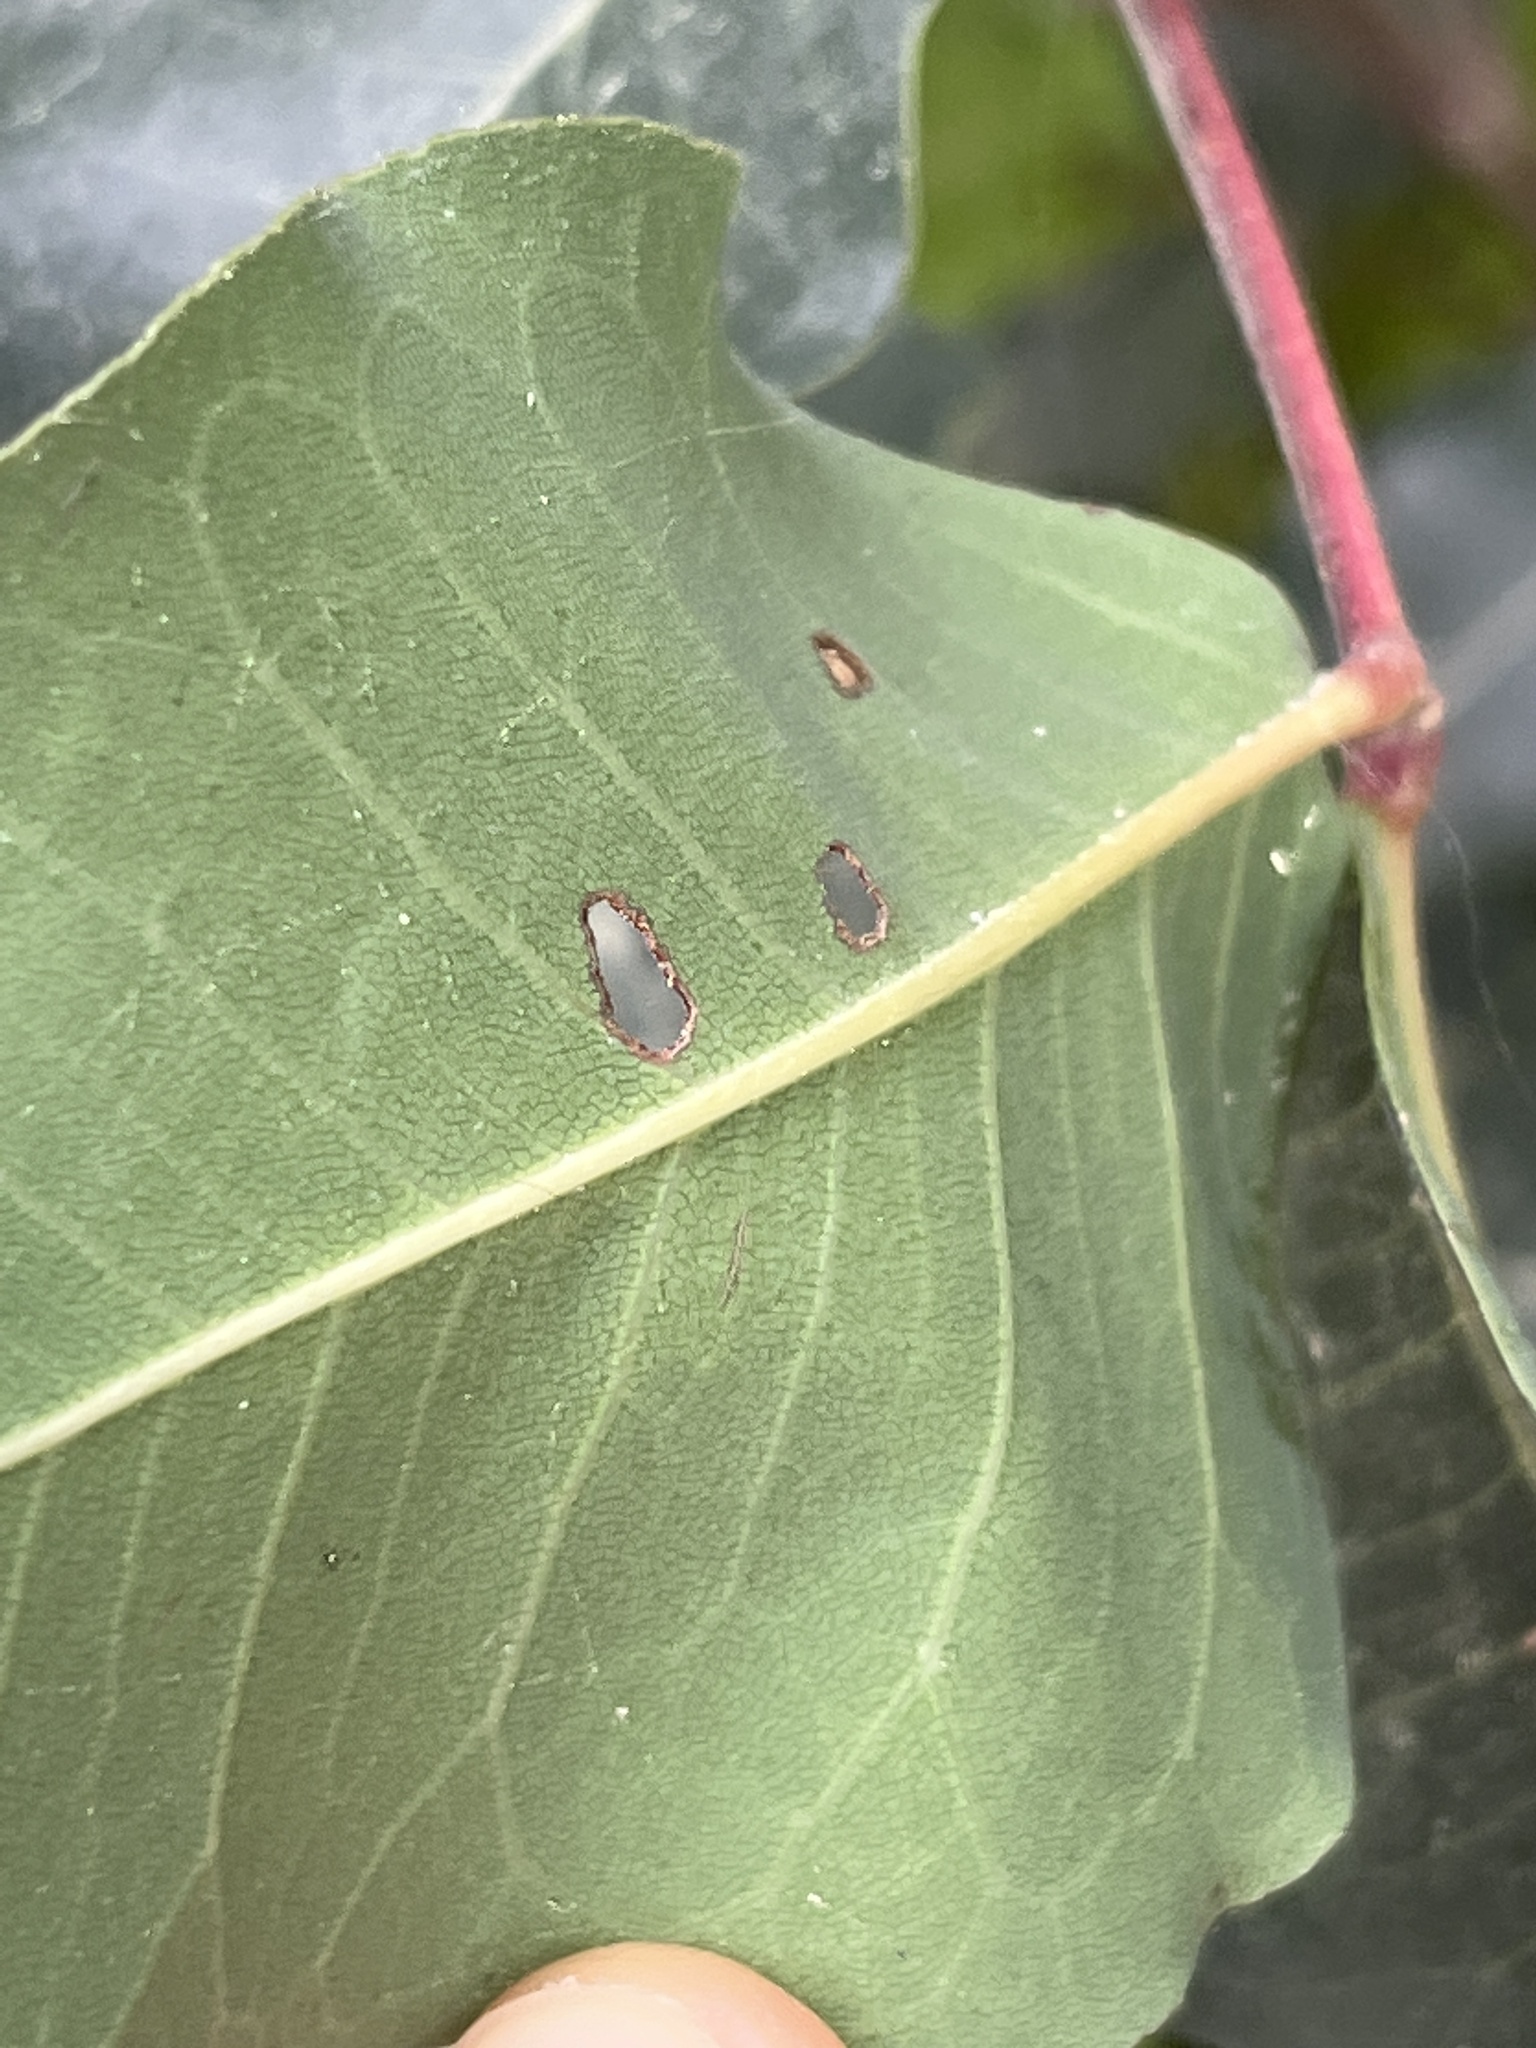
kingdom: Plantae
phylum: Tracheophyta
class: Magnoliopsida
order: Fabales
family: Fabaceae
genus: Ceratonia
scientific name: Ceratonia siliqua
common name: Carob
